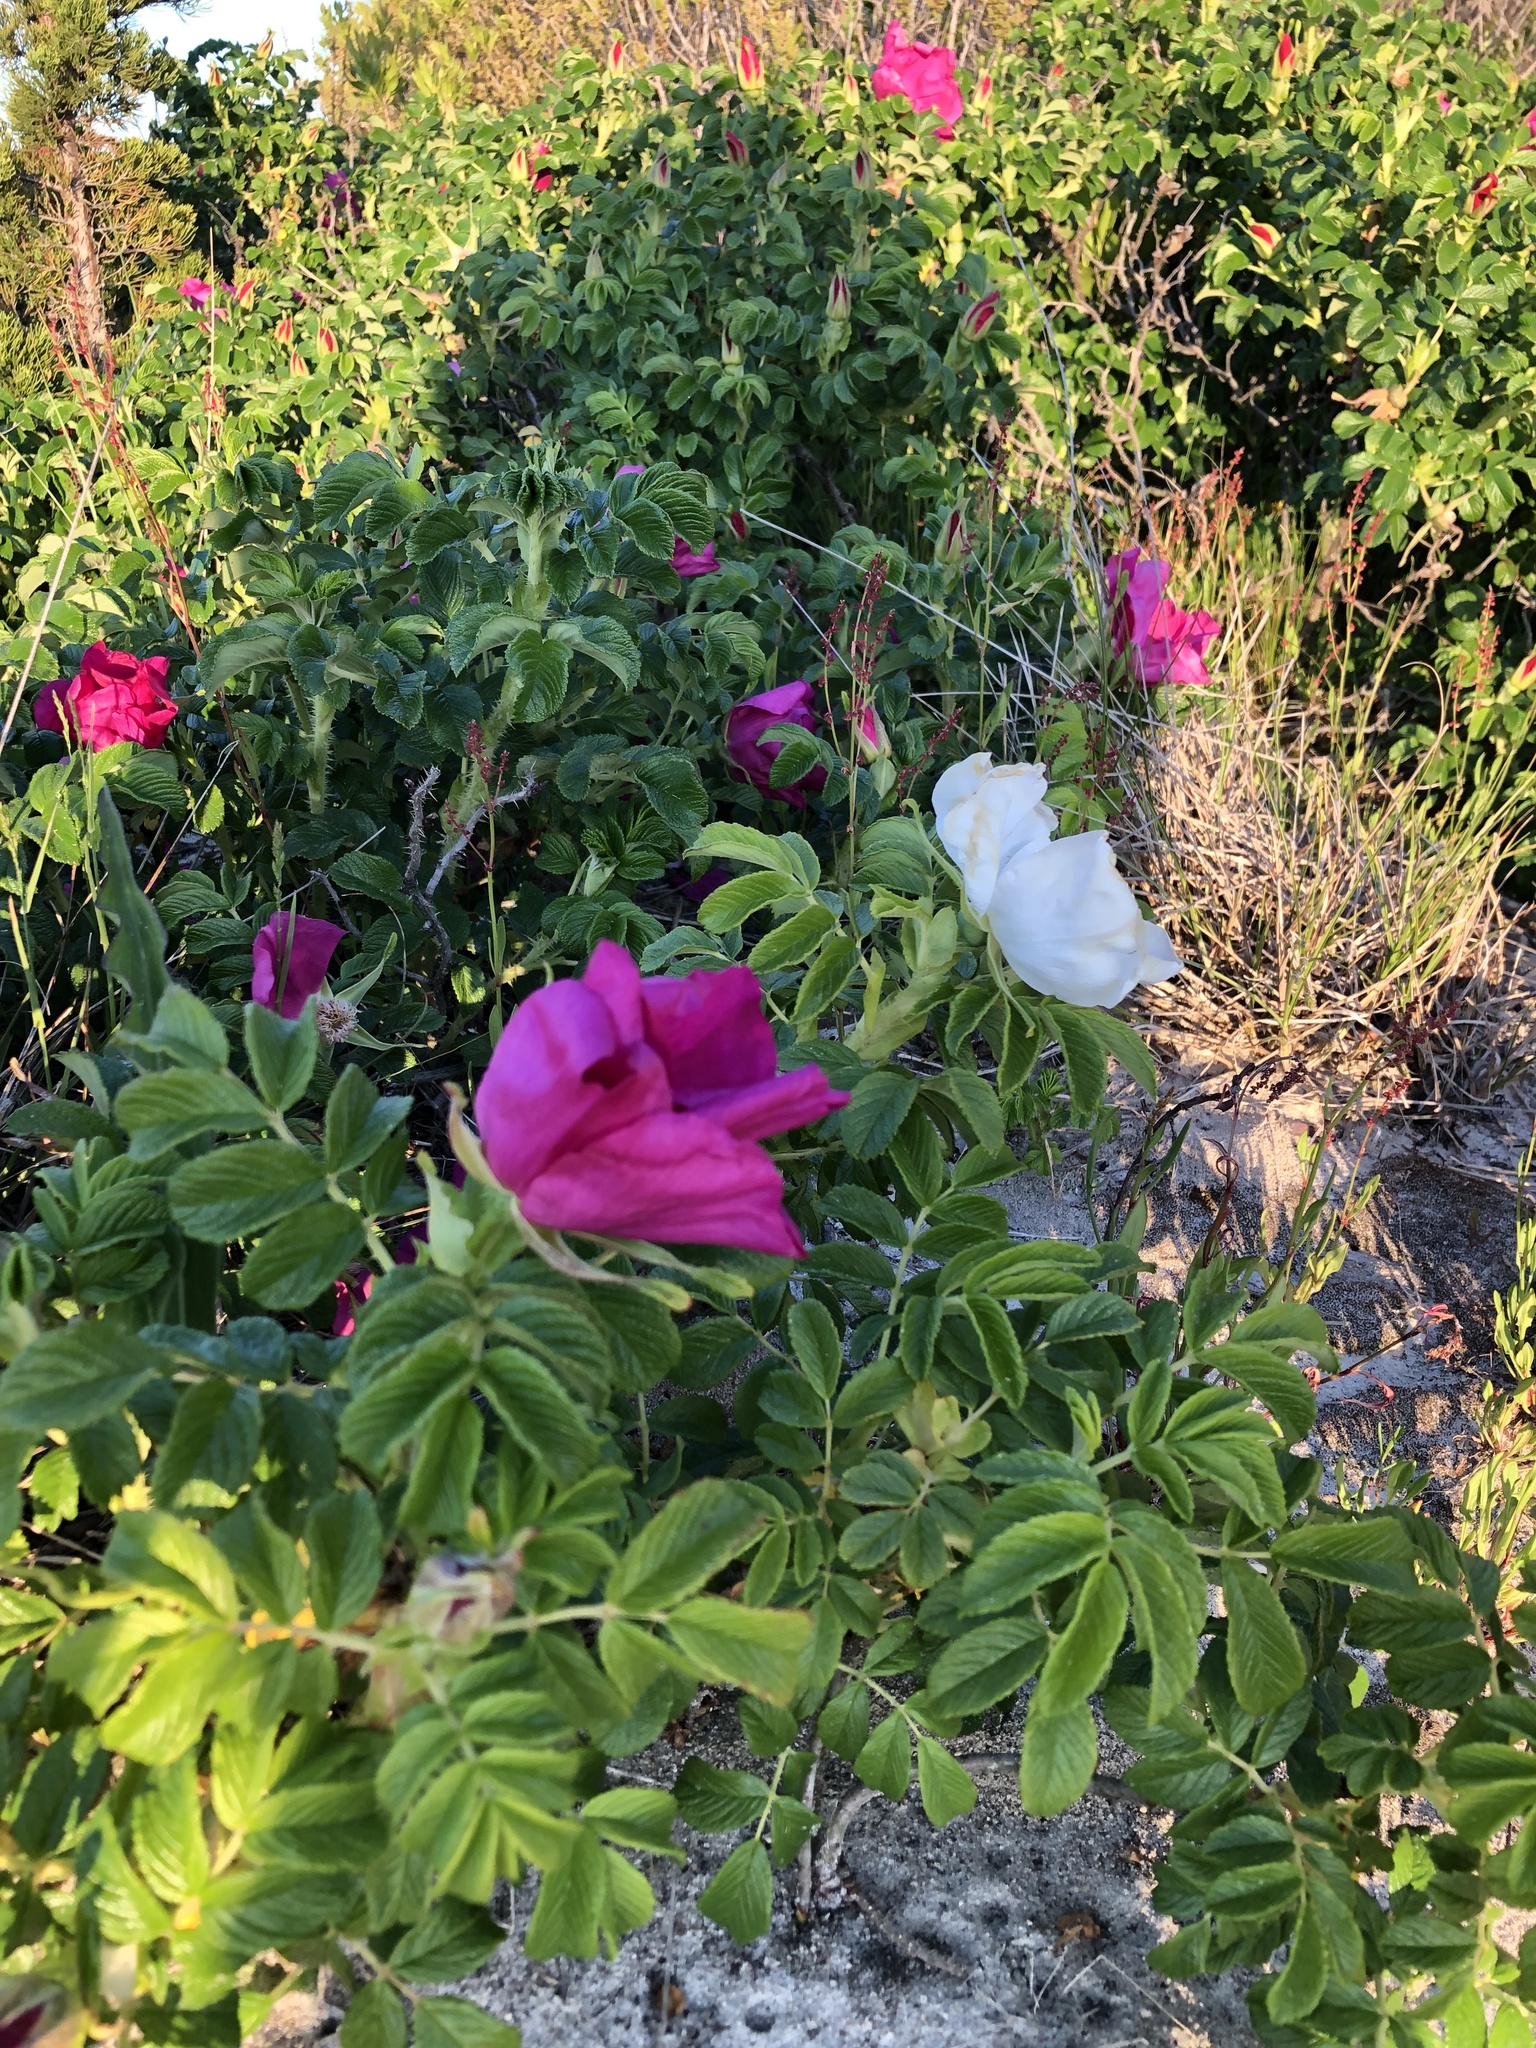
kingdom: Plantae
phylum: Tracheophyta
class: Magnoliopsida
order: Rosales
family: Rosaceae
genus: Rosa
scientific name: Rosa rugosa
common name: Japanese rose
